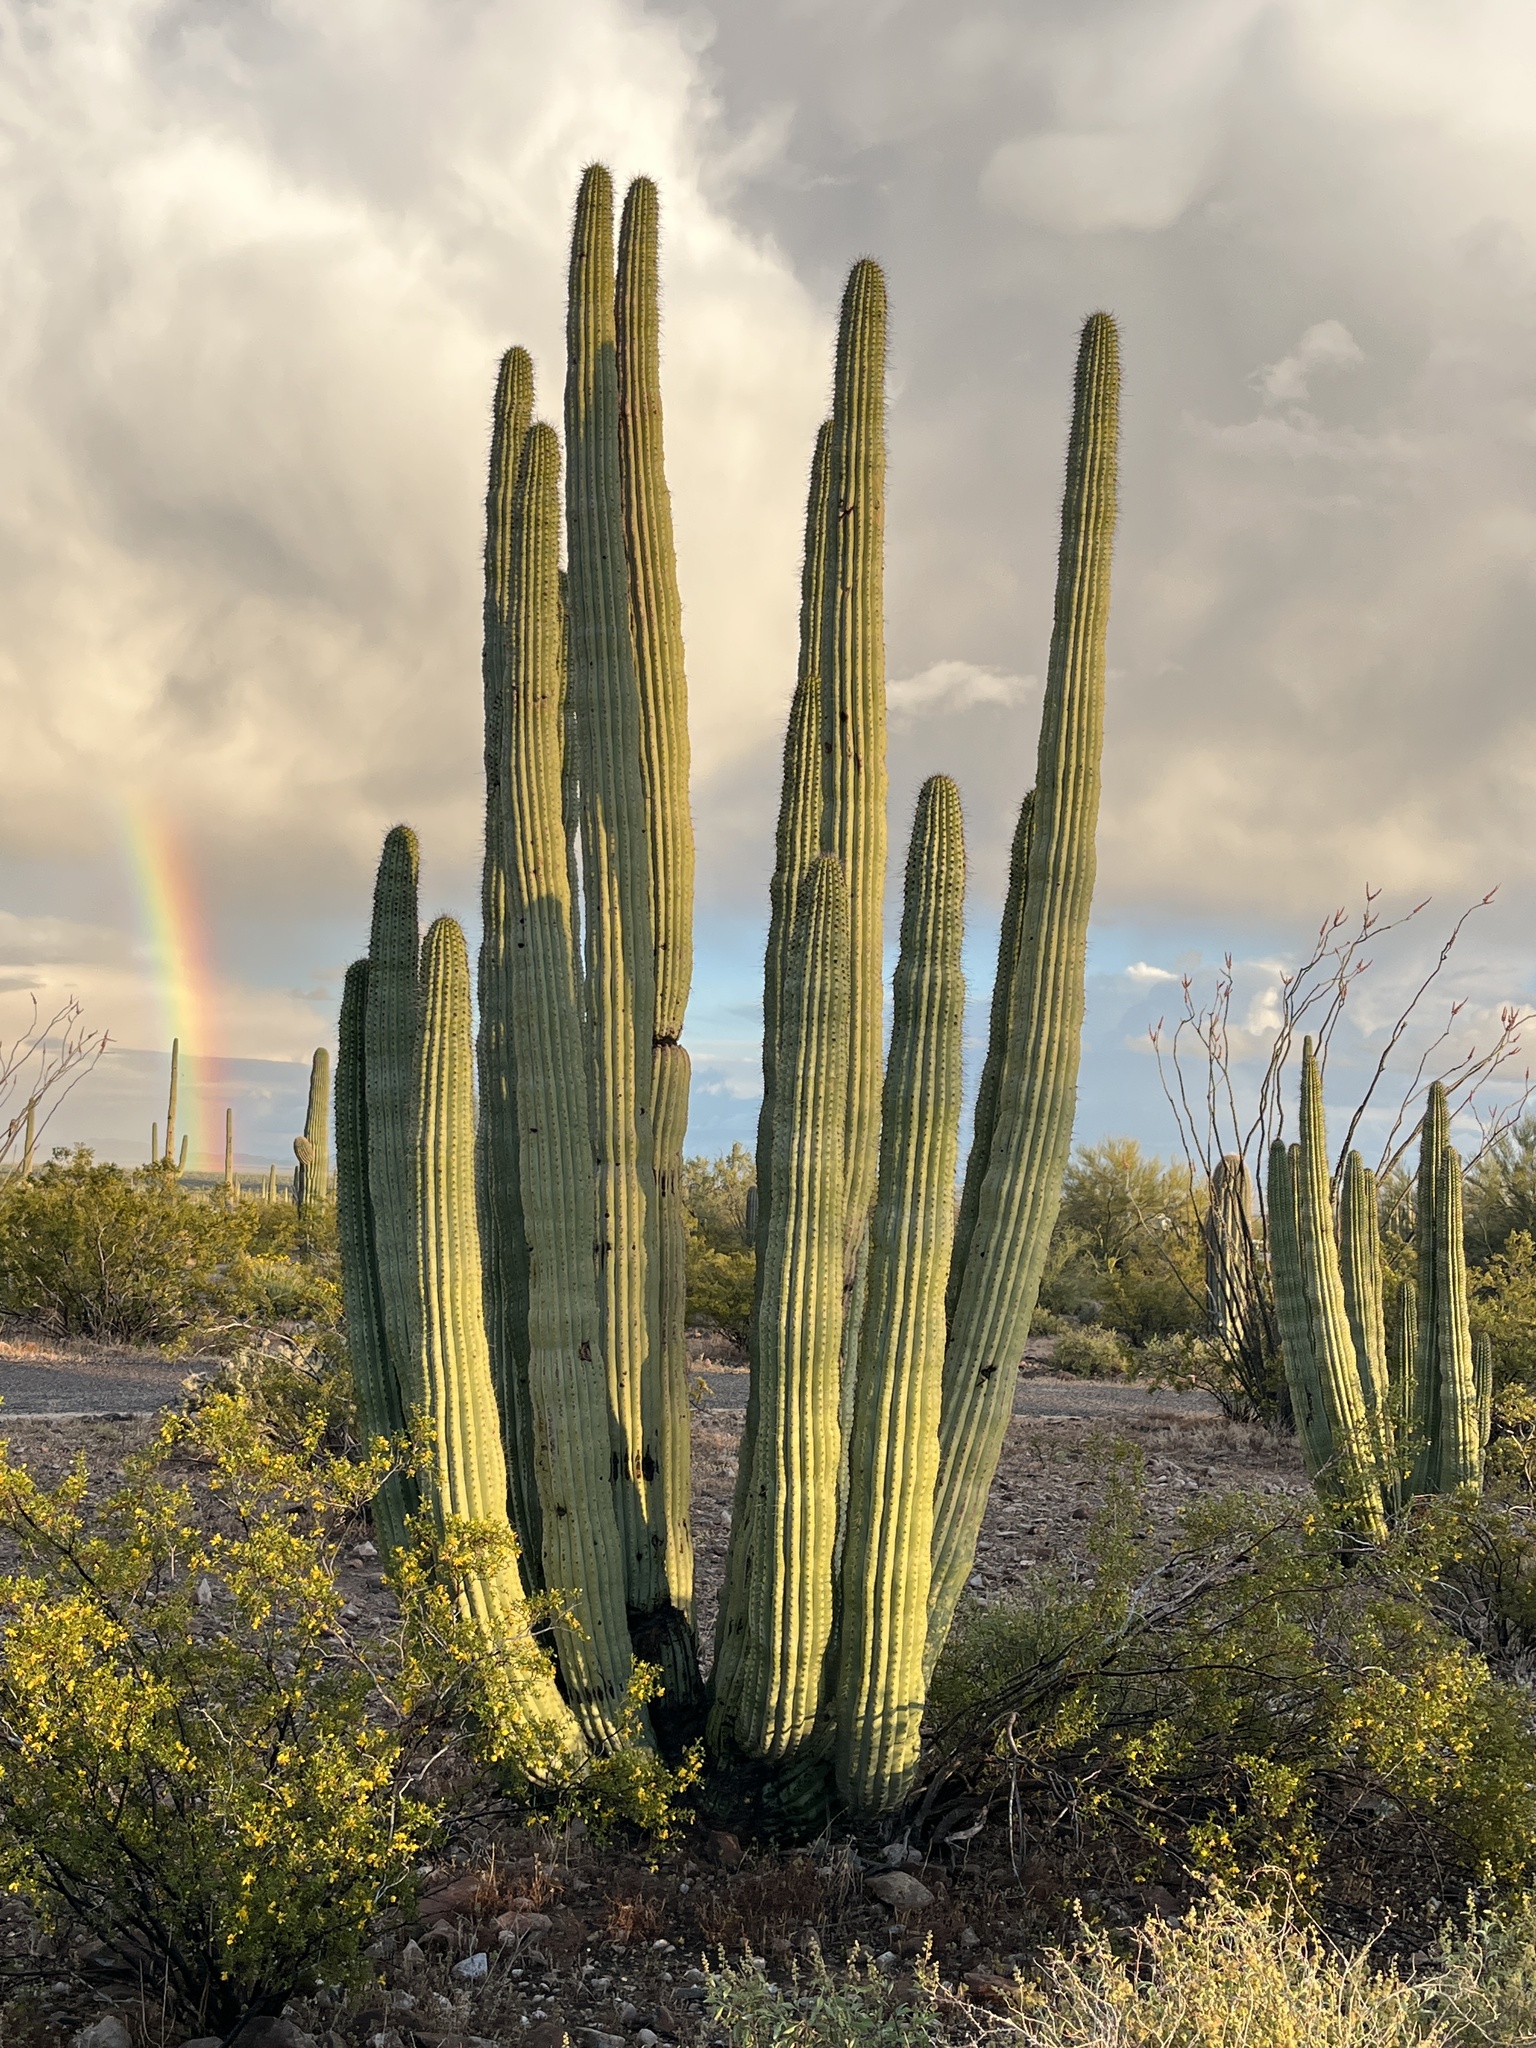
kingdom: Plantae
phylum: Tracheophyta
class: Magnoliopsida
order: Caryophyllales
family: Cactaceae
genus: Stenocereus
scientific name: Stenocereus thurberi
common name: Organ pipe cactus
